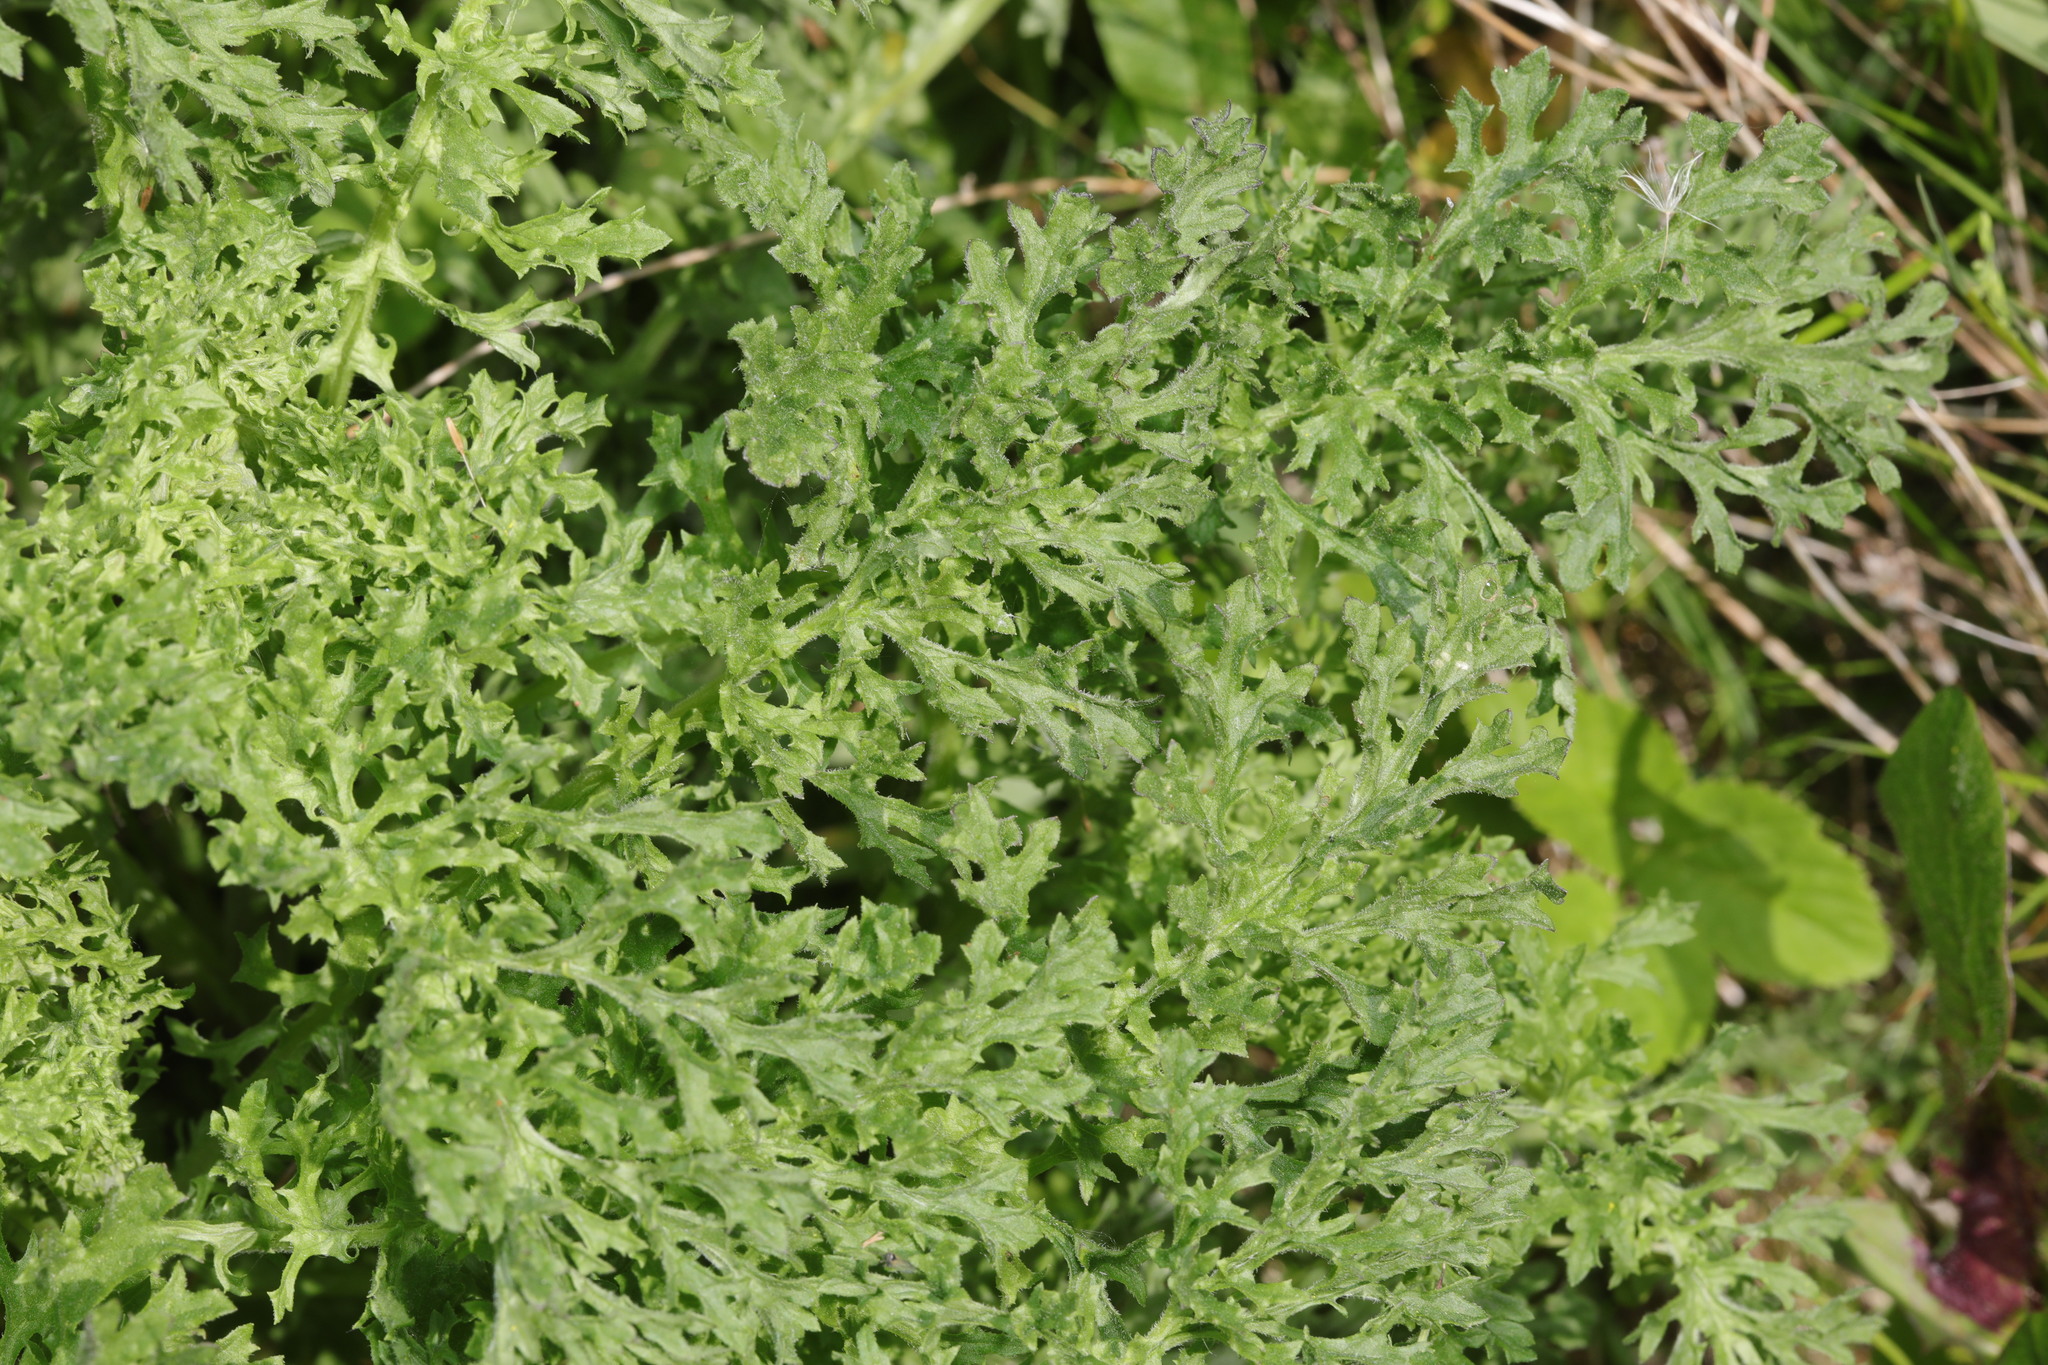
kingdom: Plantae
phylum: Tracheophyta
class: Magnoliopsida
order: Asterales
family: Asteraceae
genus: Jacobaea
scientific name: Jacobaea vulgaris
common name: Stinking willie
